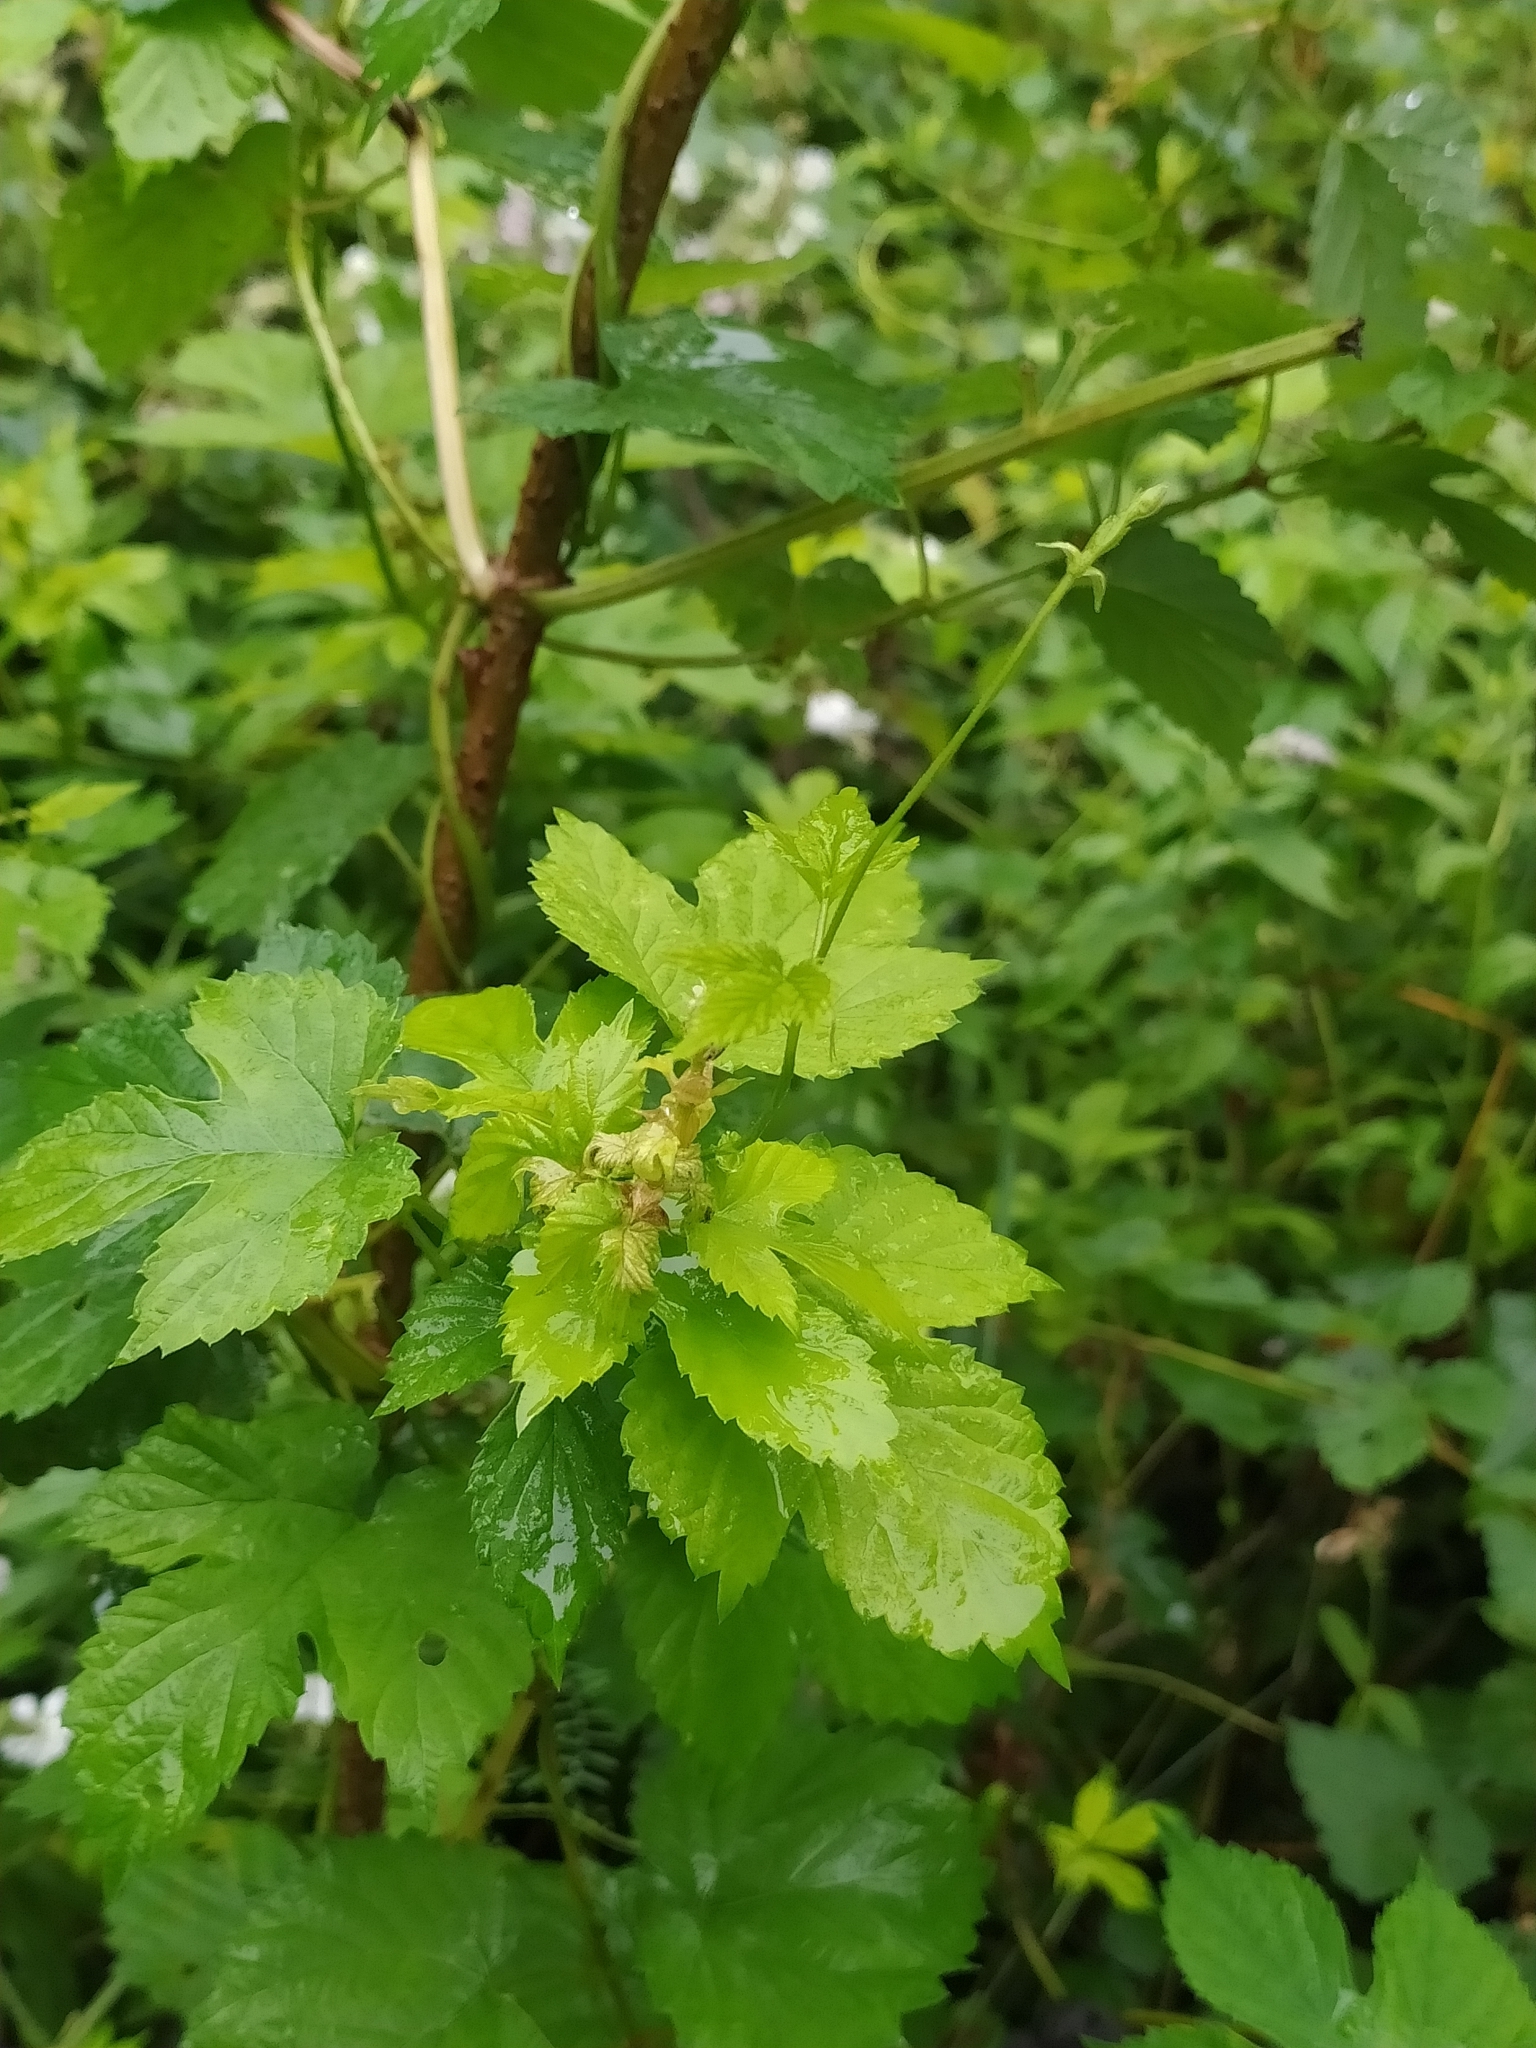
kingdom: Plantae
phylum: Tracheophyta
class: Magnoliopsida
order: Rosales
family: Cannabaceae
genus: Humulus
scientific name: Humulus lupulus
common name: Hop
